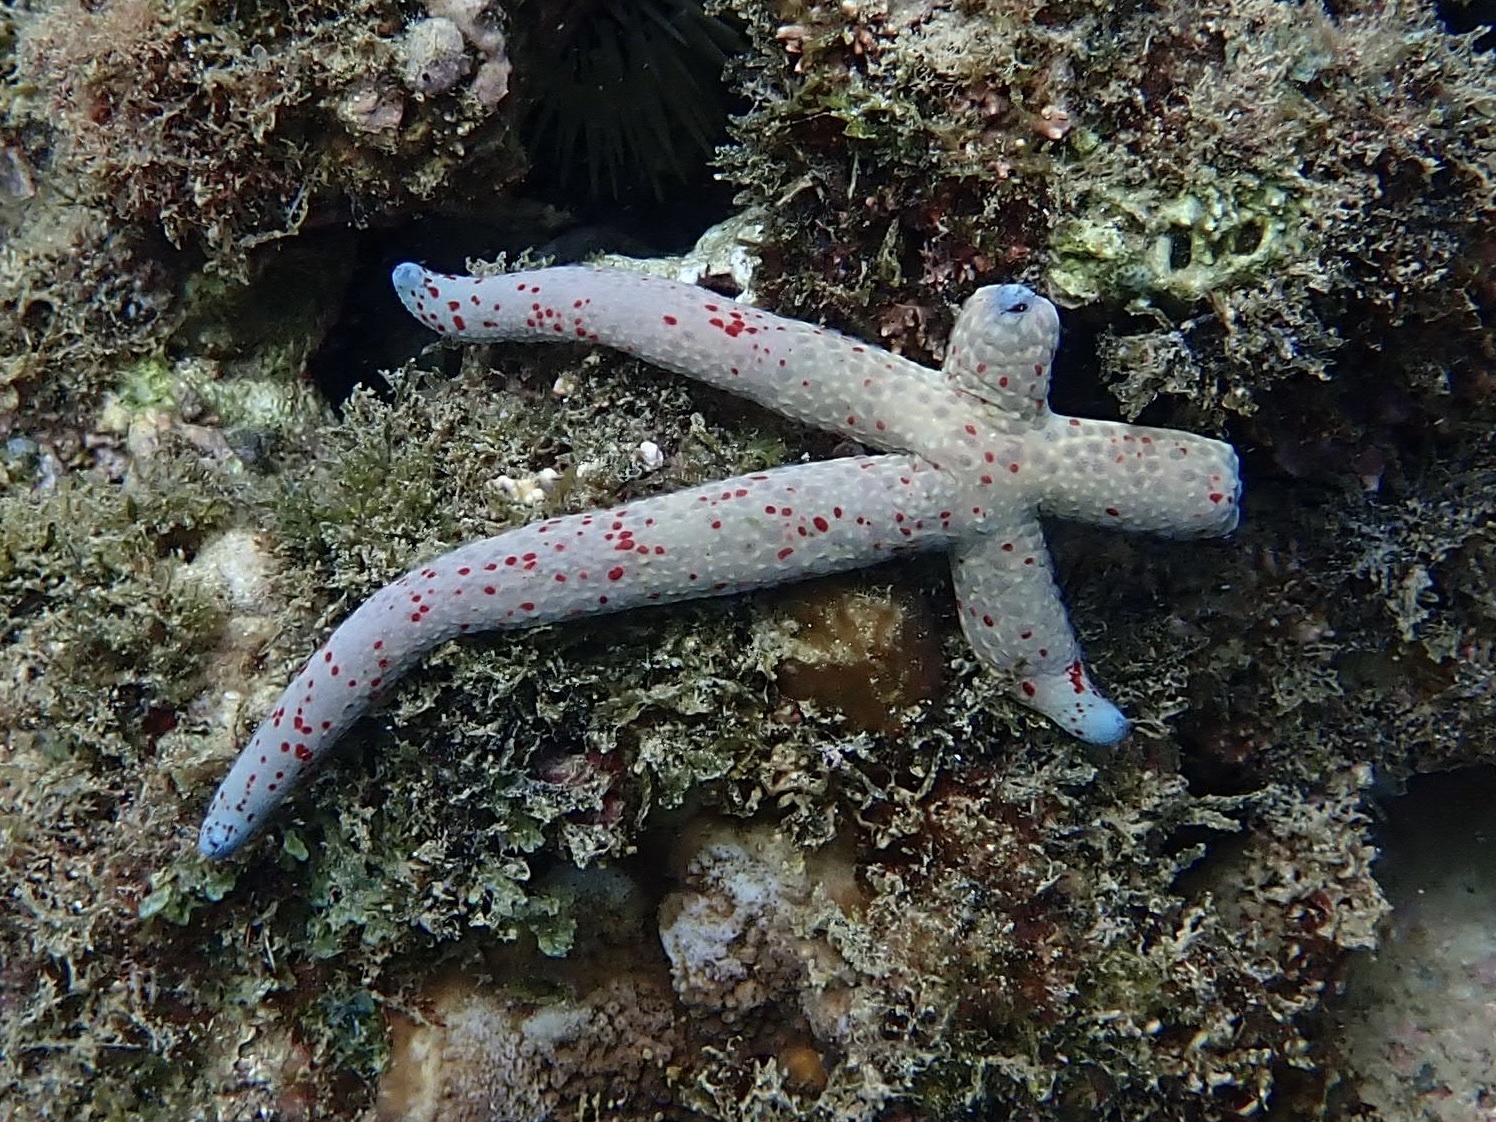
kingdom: Animalia
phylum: Echinodermata
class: Asteroidea
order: Valvatida
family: Ophidiasteridae
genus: Linckia
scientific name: Linckia multifora
